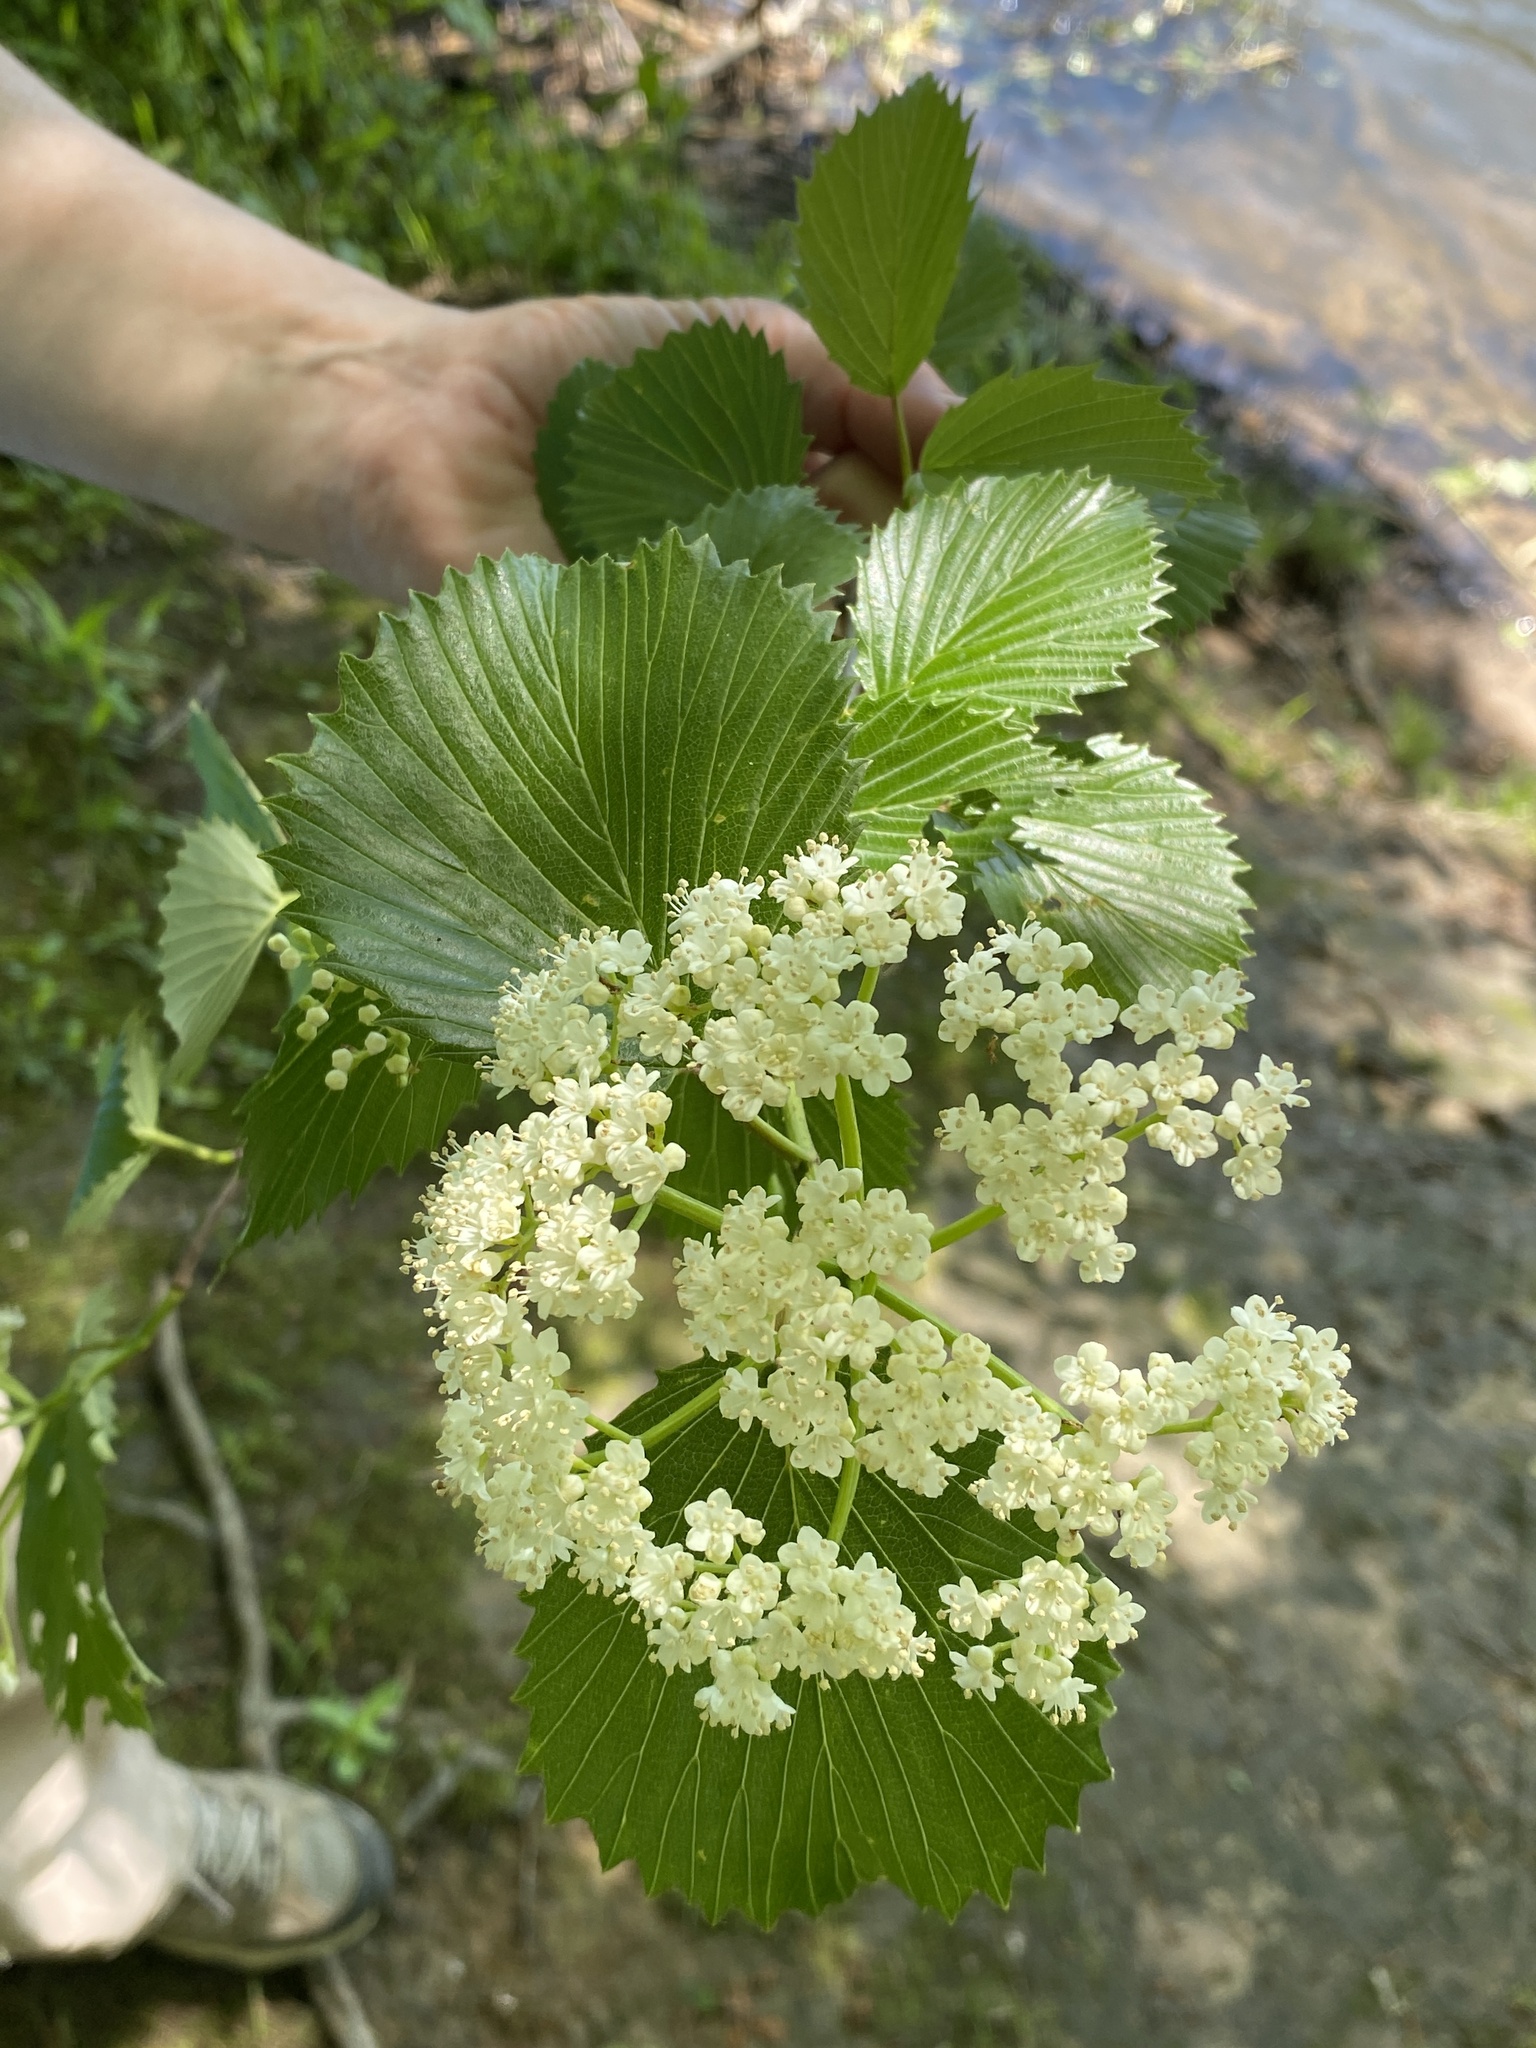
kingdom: Plantae
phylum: Tracheophyta
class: Magnoliopsida
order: Dipsacales
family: Viburnaceae
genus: Viburnum
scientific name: Viburnum dentatum
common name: Arrow-wood
